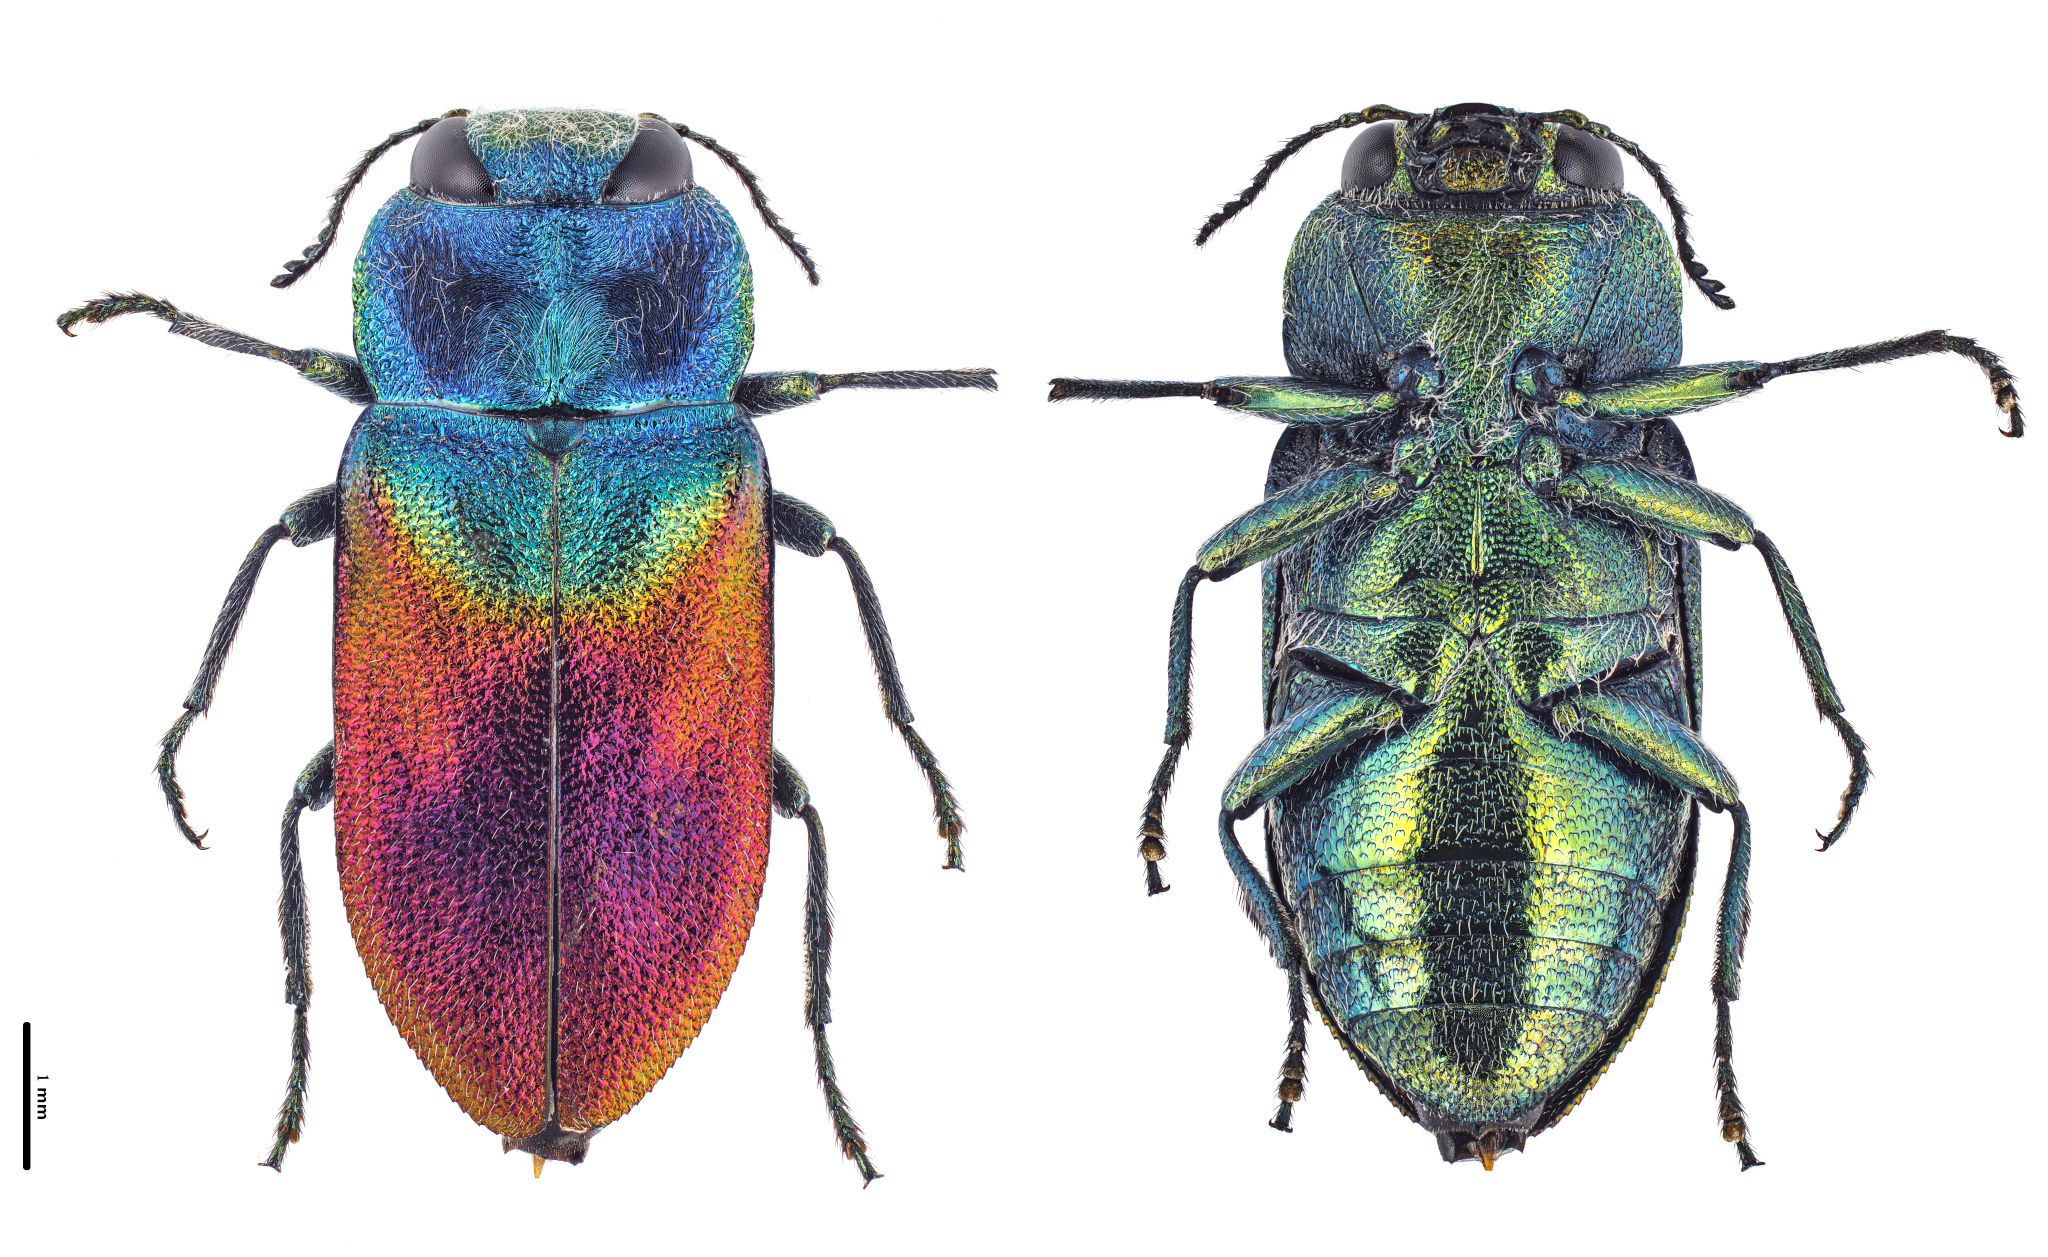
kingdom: Animalia
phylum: Arthropoda
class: Insecta
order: Coleoptera
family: Buprestidae
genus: Anthaxia
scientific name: Anthaxia salicis
